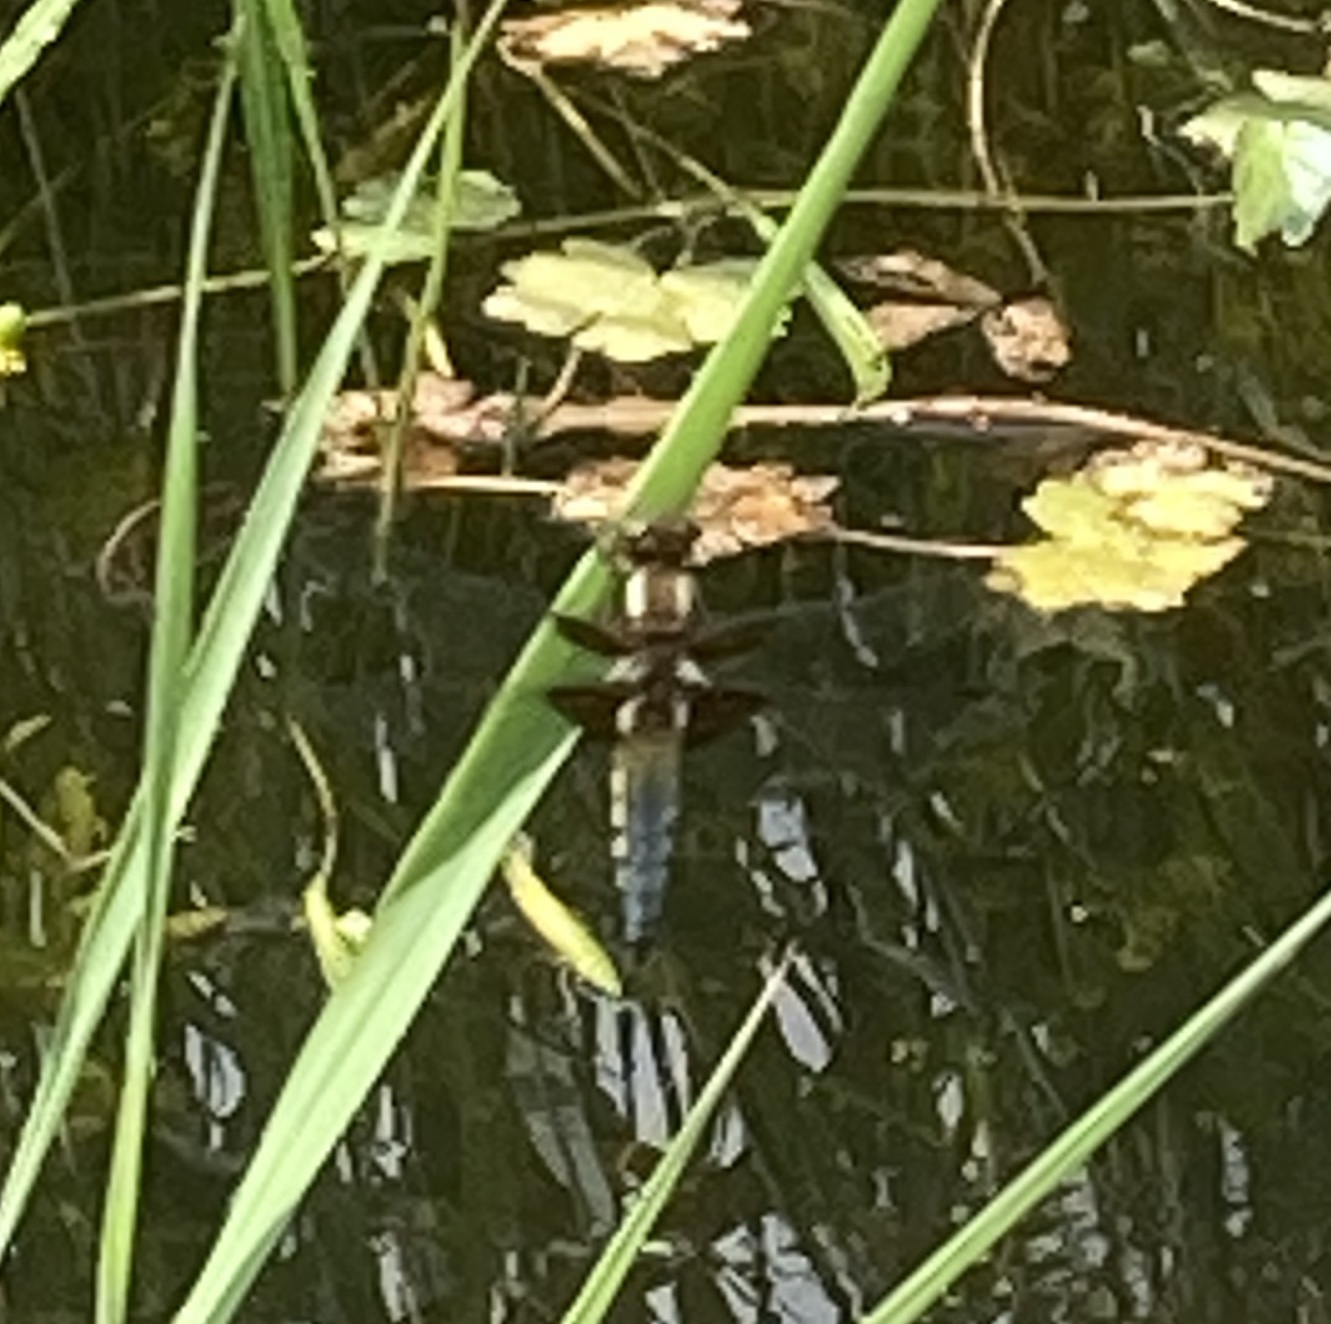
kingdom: Animalia
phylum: Arthropoda
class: Insecta
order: Odonata
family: Libellulidae
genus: Libellula
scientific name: Libellula depressa
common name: Broad-bodied chaser
